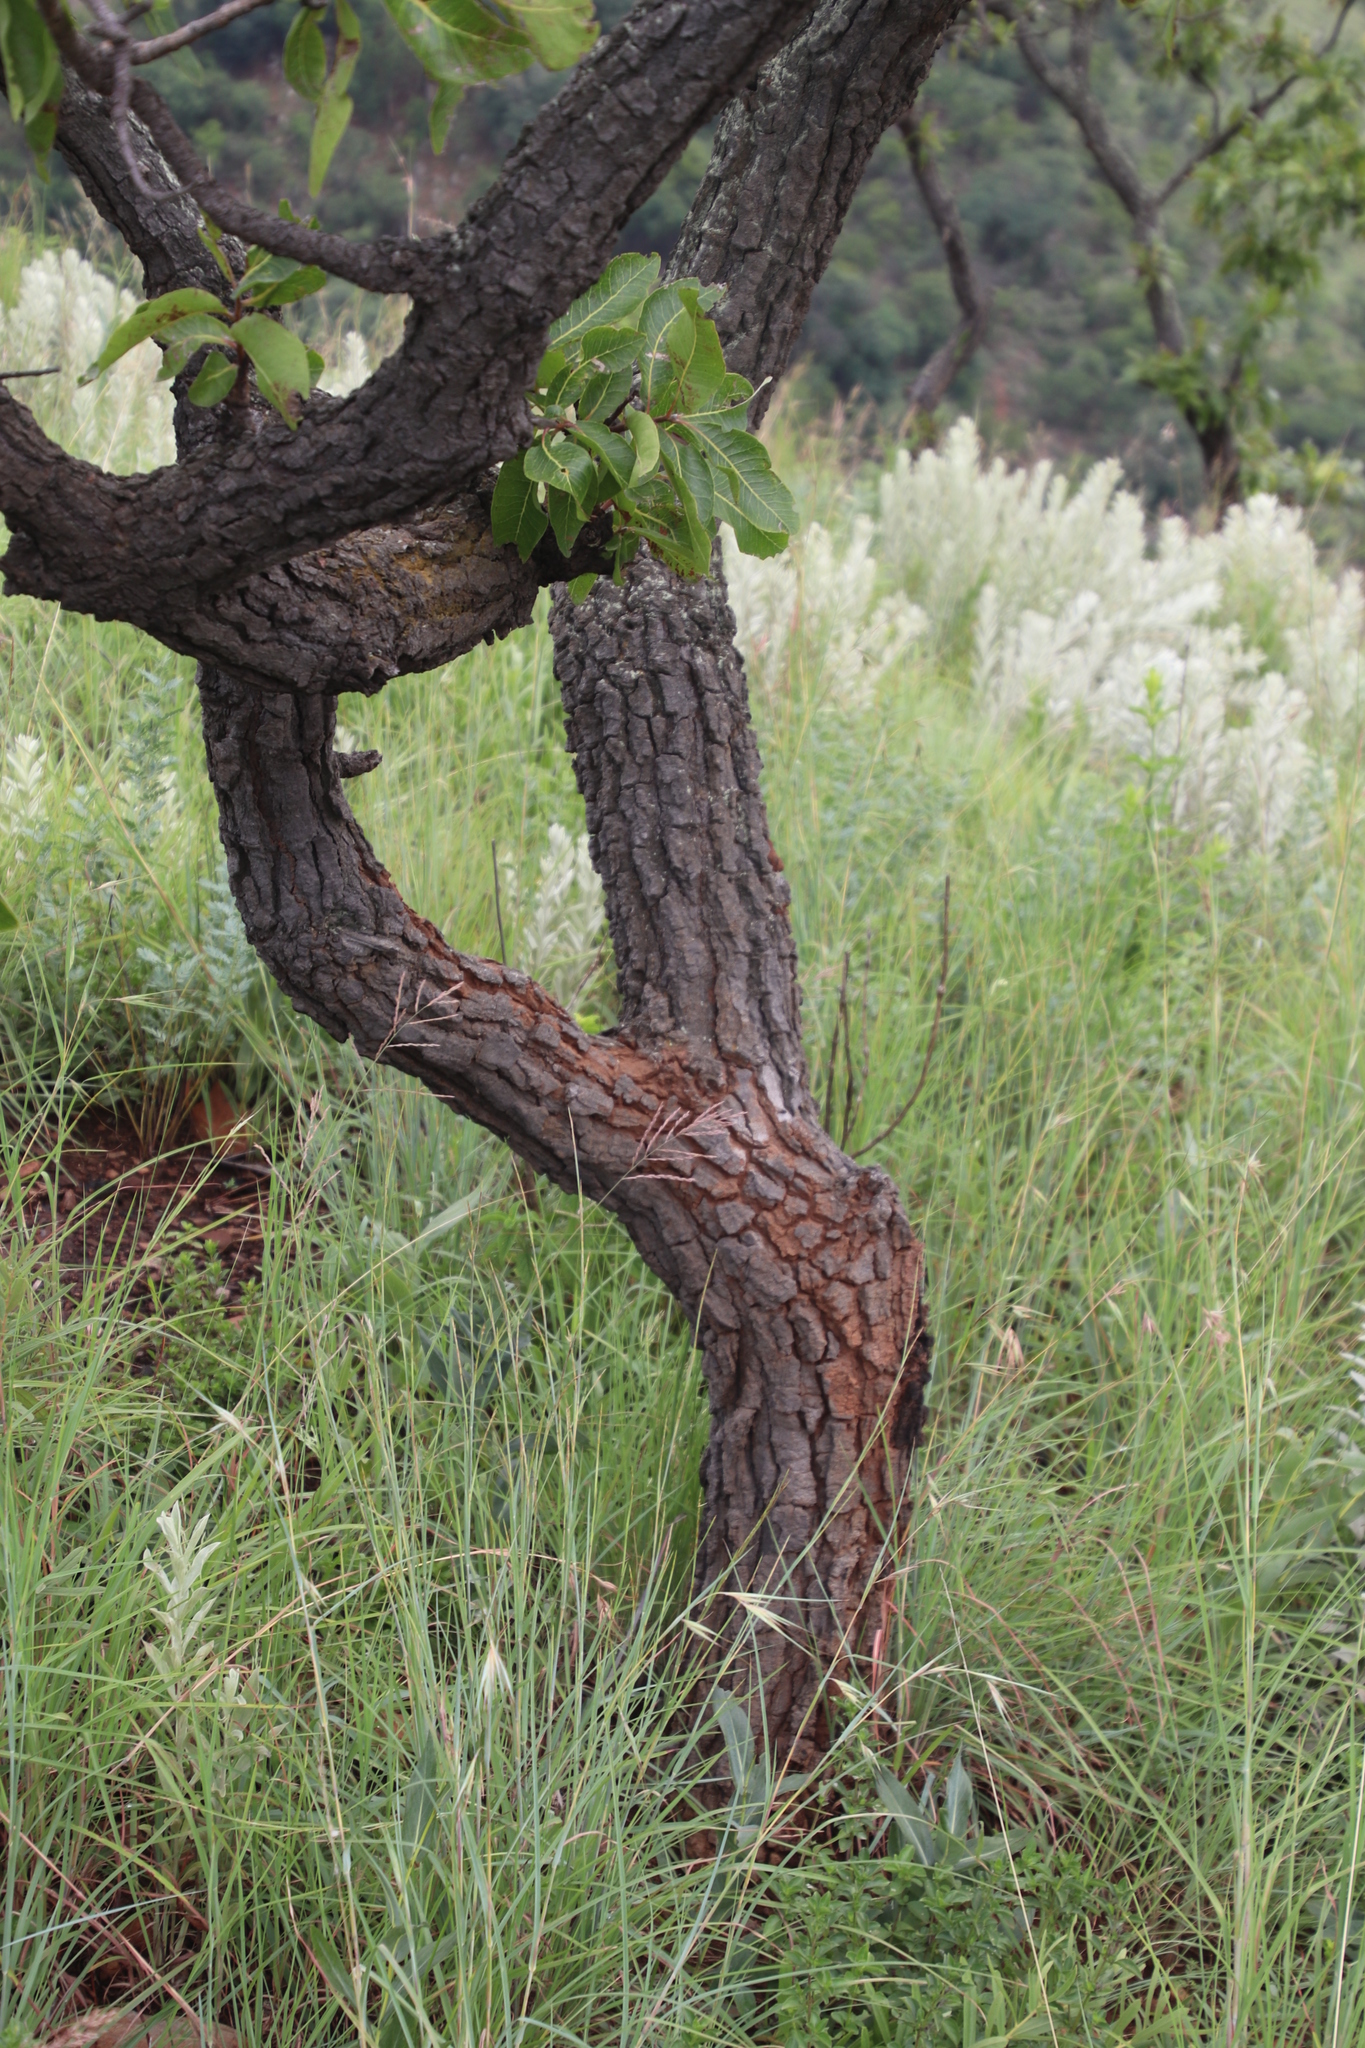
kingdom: Plantae
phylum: Tracheophyta
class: Magnoliopsida
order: Proteales
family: Proteaceae
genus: Faurea
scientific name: Faurea rochetiana
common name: Broad-leaved beech
